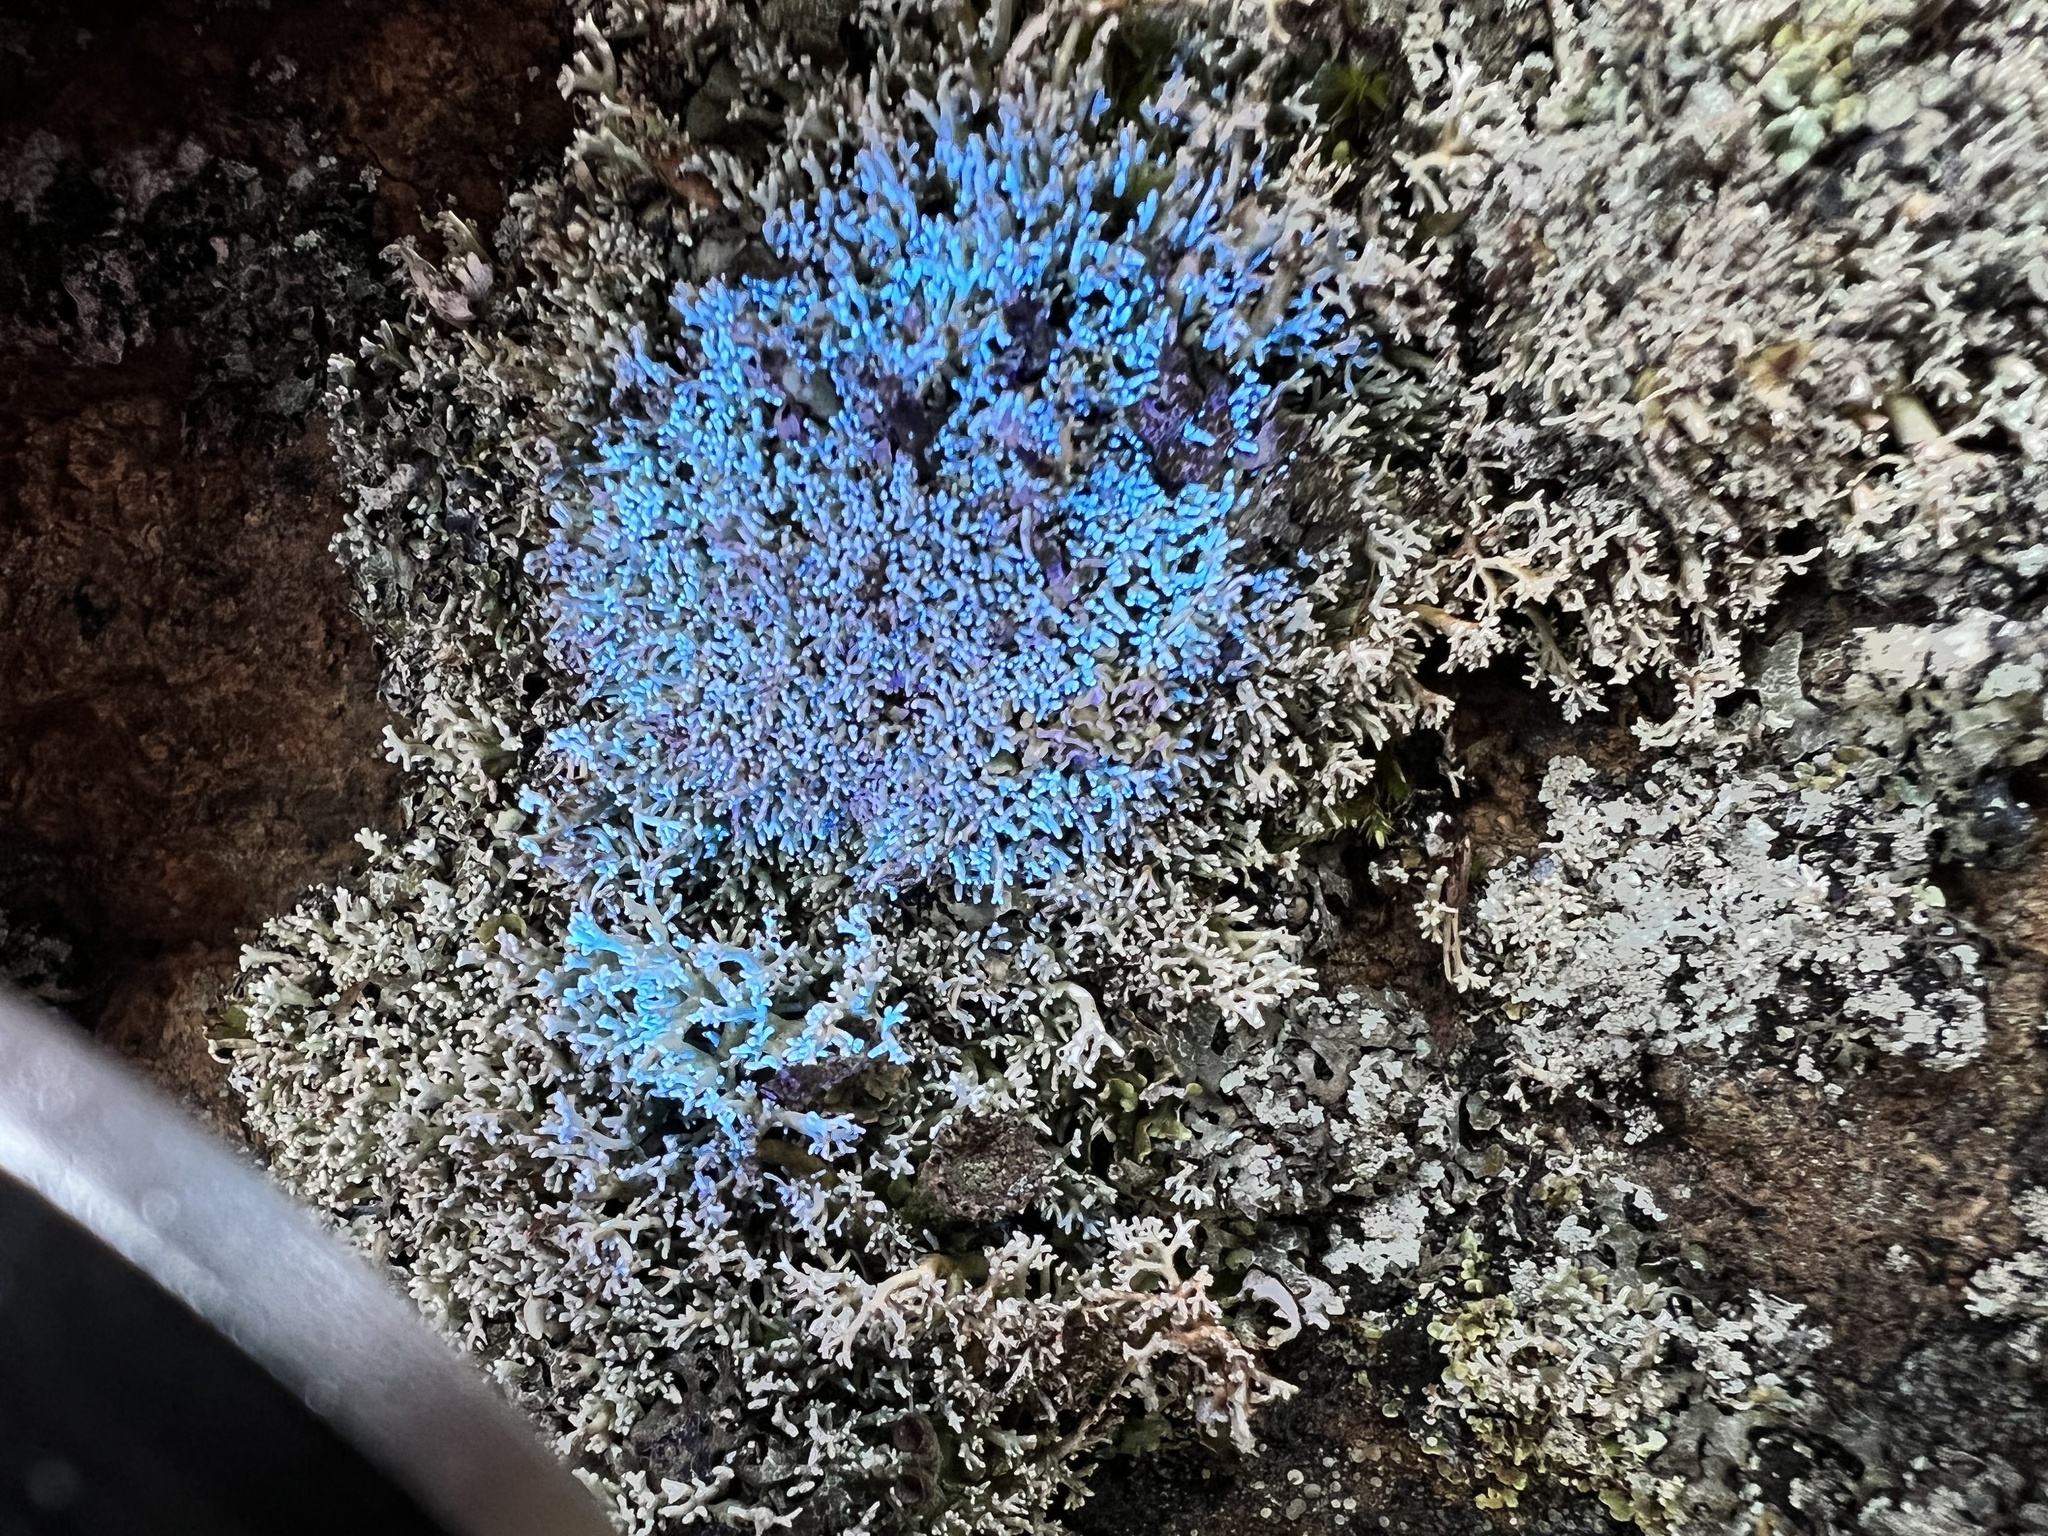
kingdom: Fungi
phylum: Ascomycota
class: Lecanoromycetes
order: Lecanorales
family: Sphaerophoraceae
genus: Sphaerophorus
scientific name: Sphaerophorus globosus
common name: Globe ball lichen
